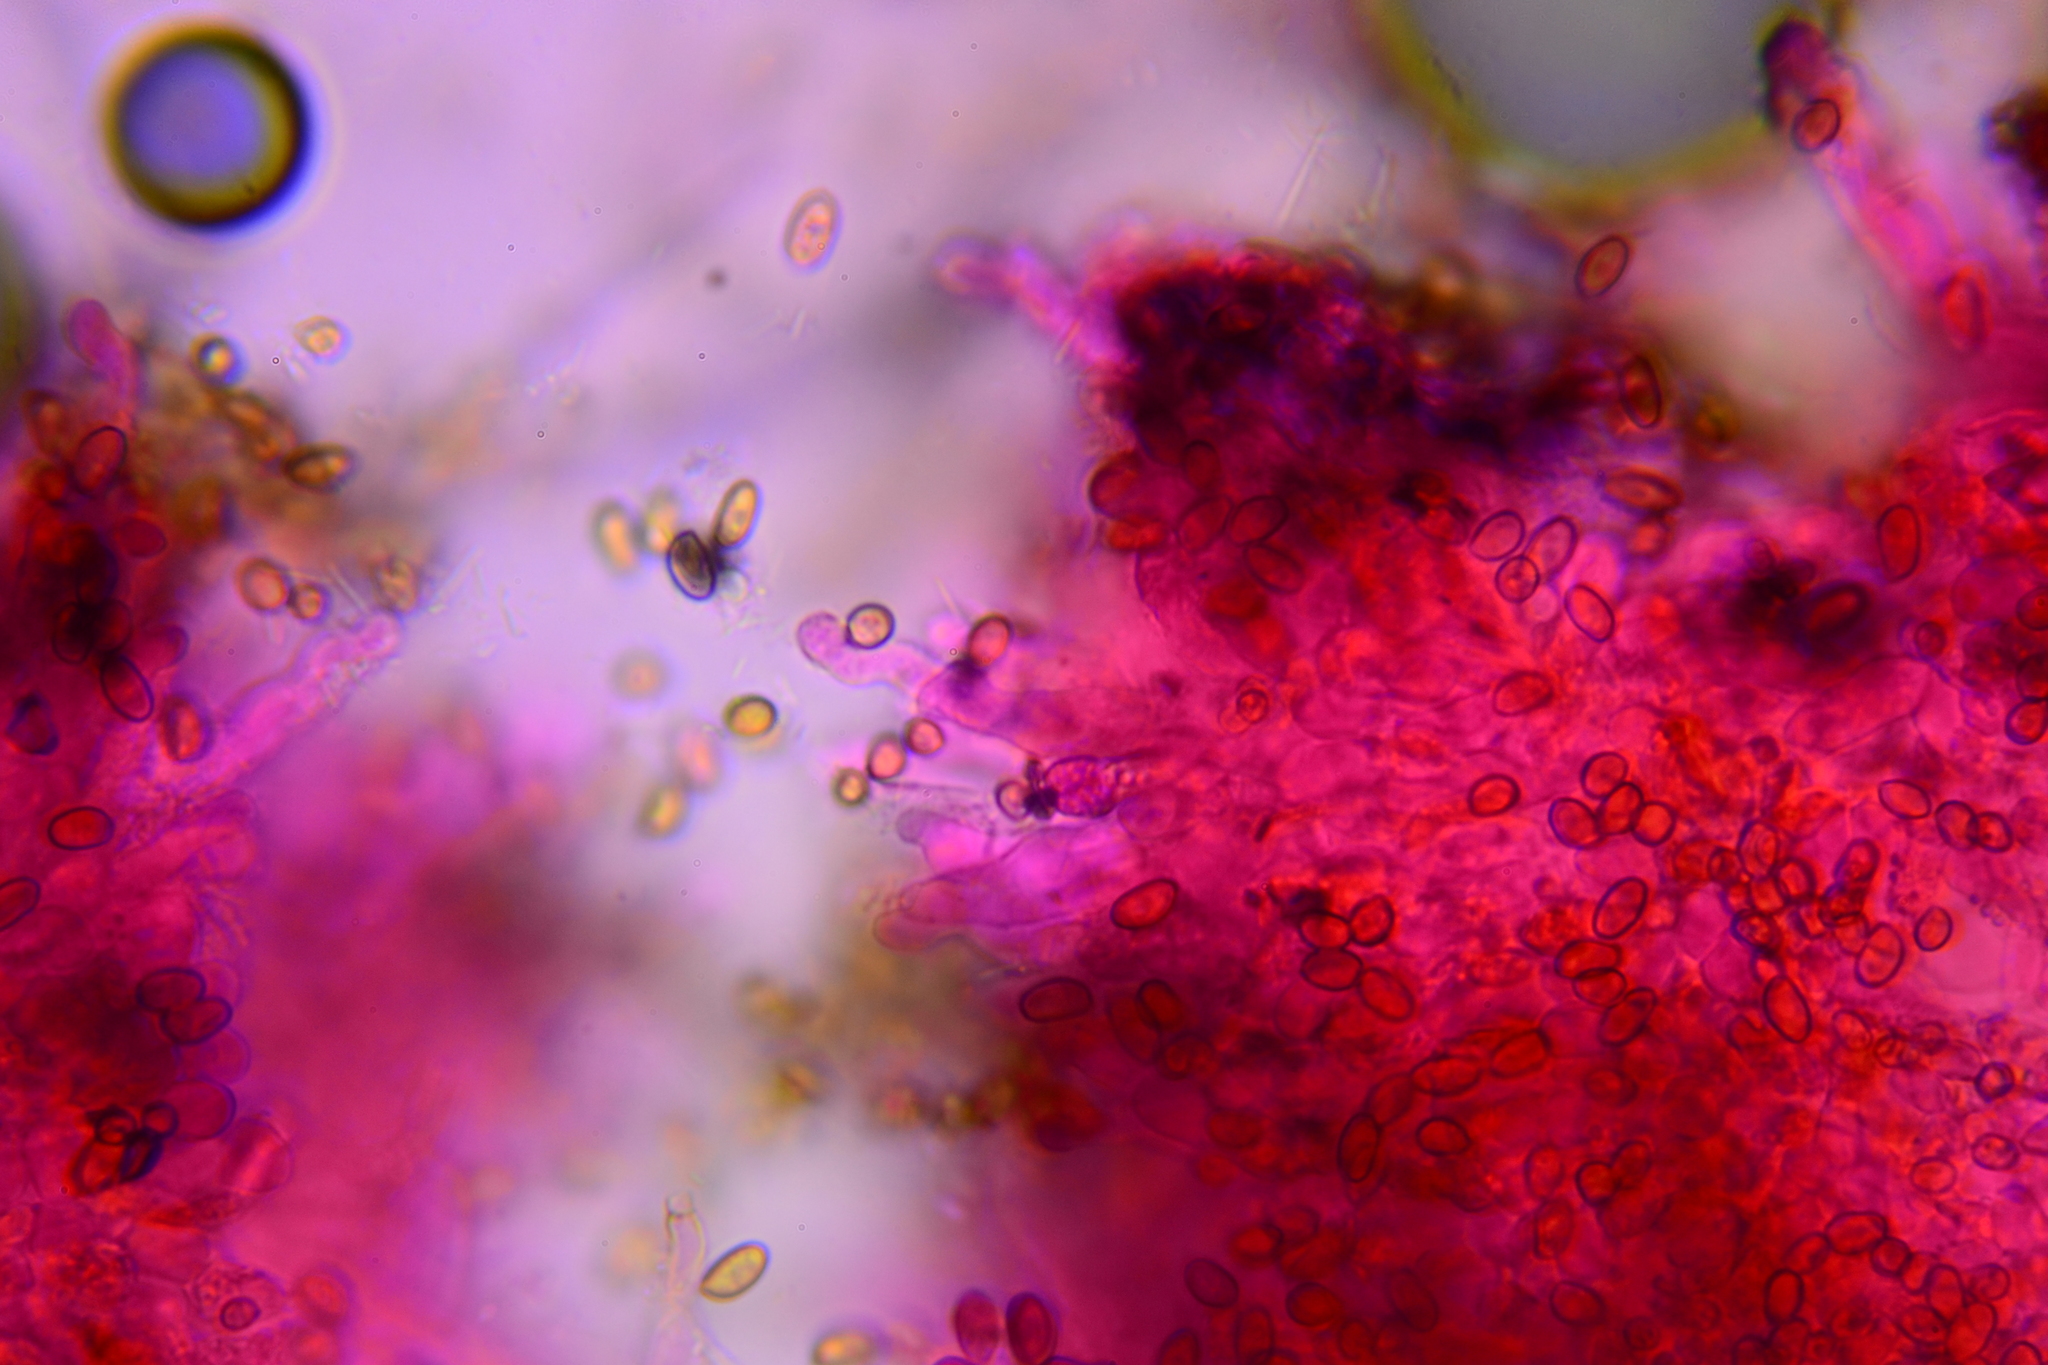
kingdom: Fungi
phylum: Basidiomycota
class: Agaricomycetes
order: Agaricales
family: Bolbitiaceae
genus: Conocybe
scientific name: Conocybe aporos
